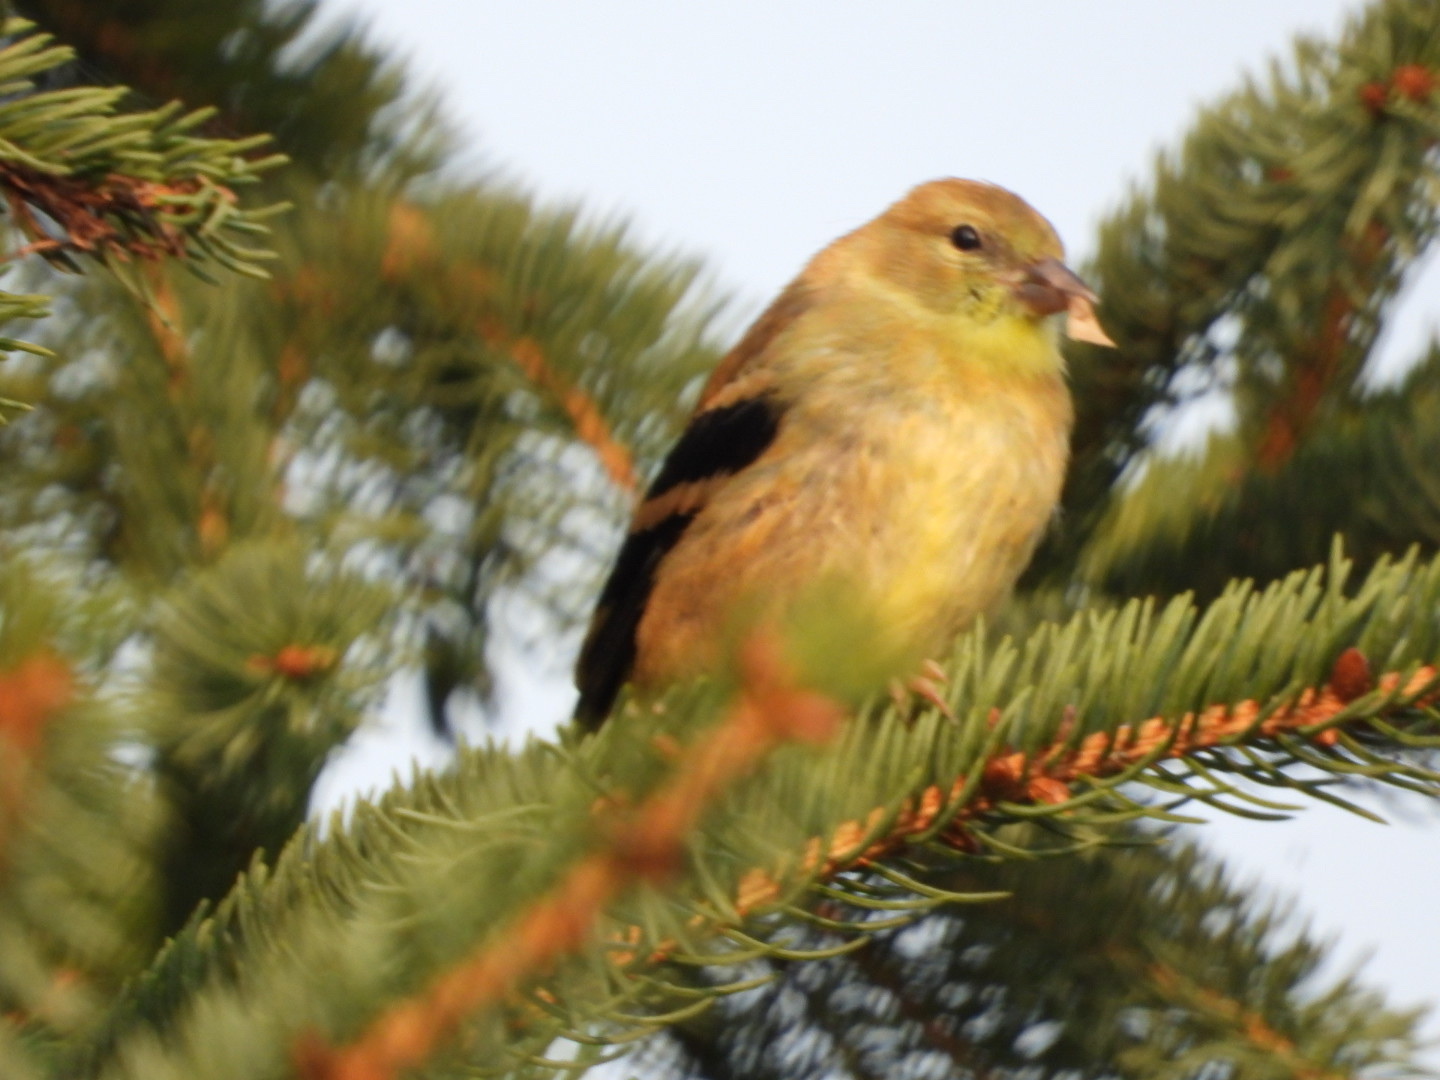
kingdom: Animalia
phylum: Chordata
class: Aves
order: Passeriformes
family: Fringillidae
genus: Spinus
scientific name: Spinus tristis
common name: American goldfinch
